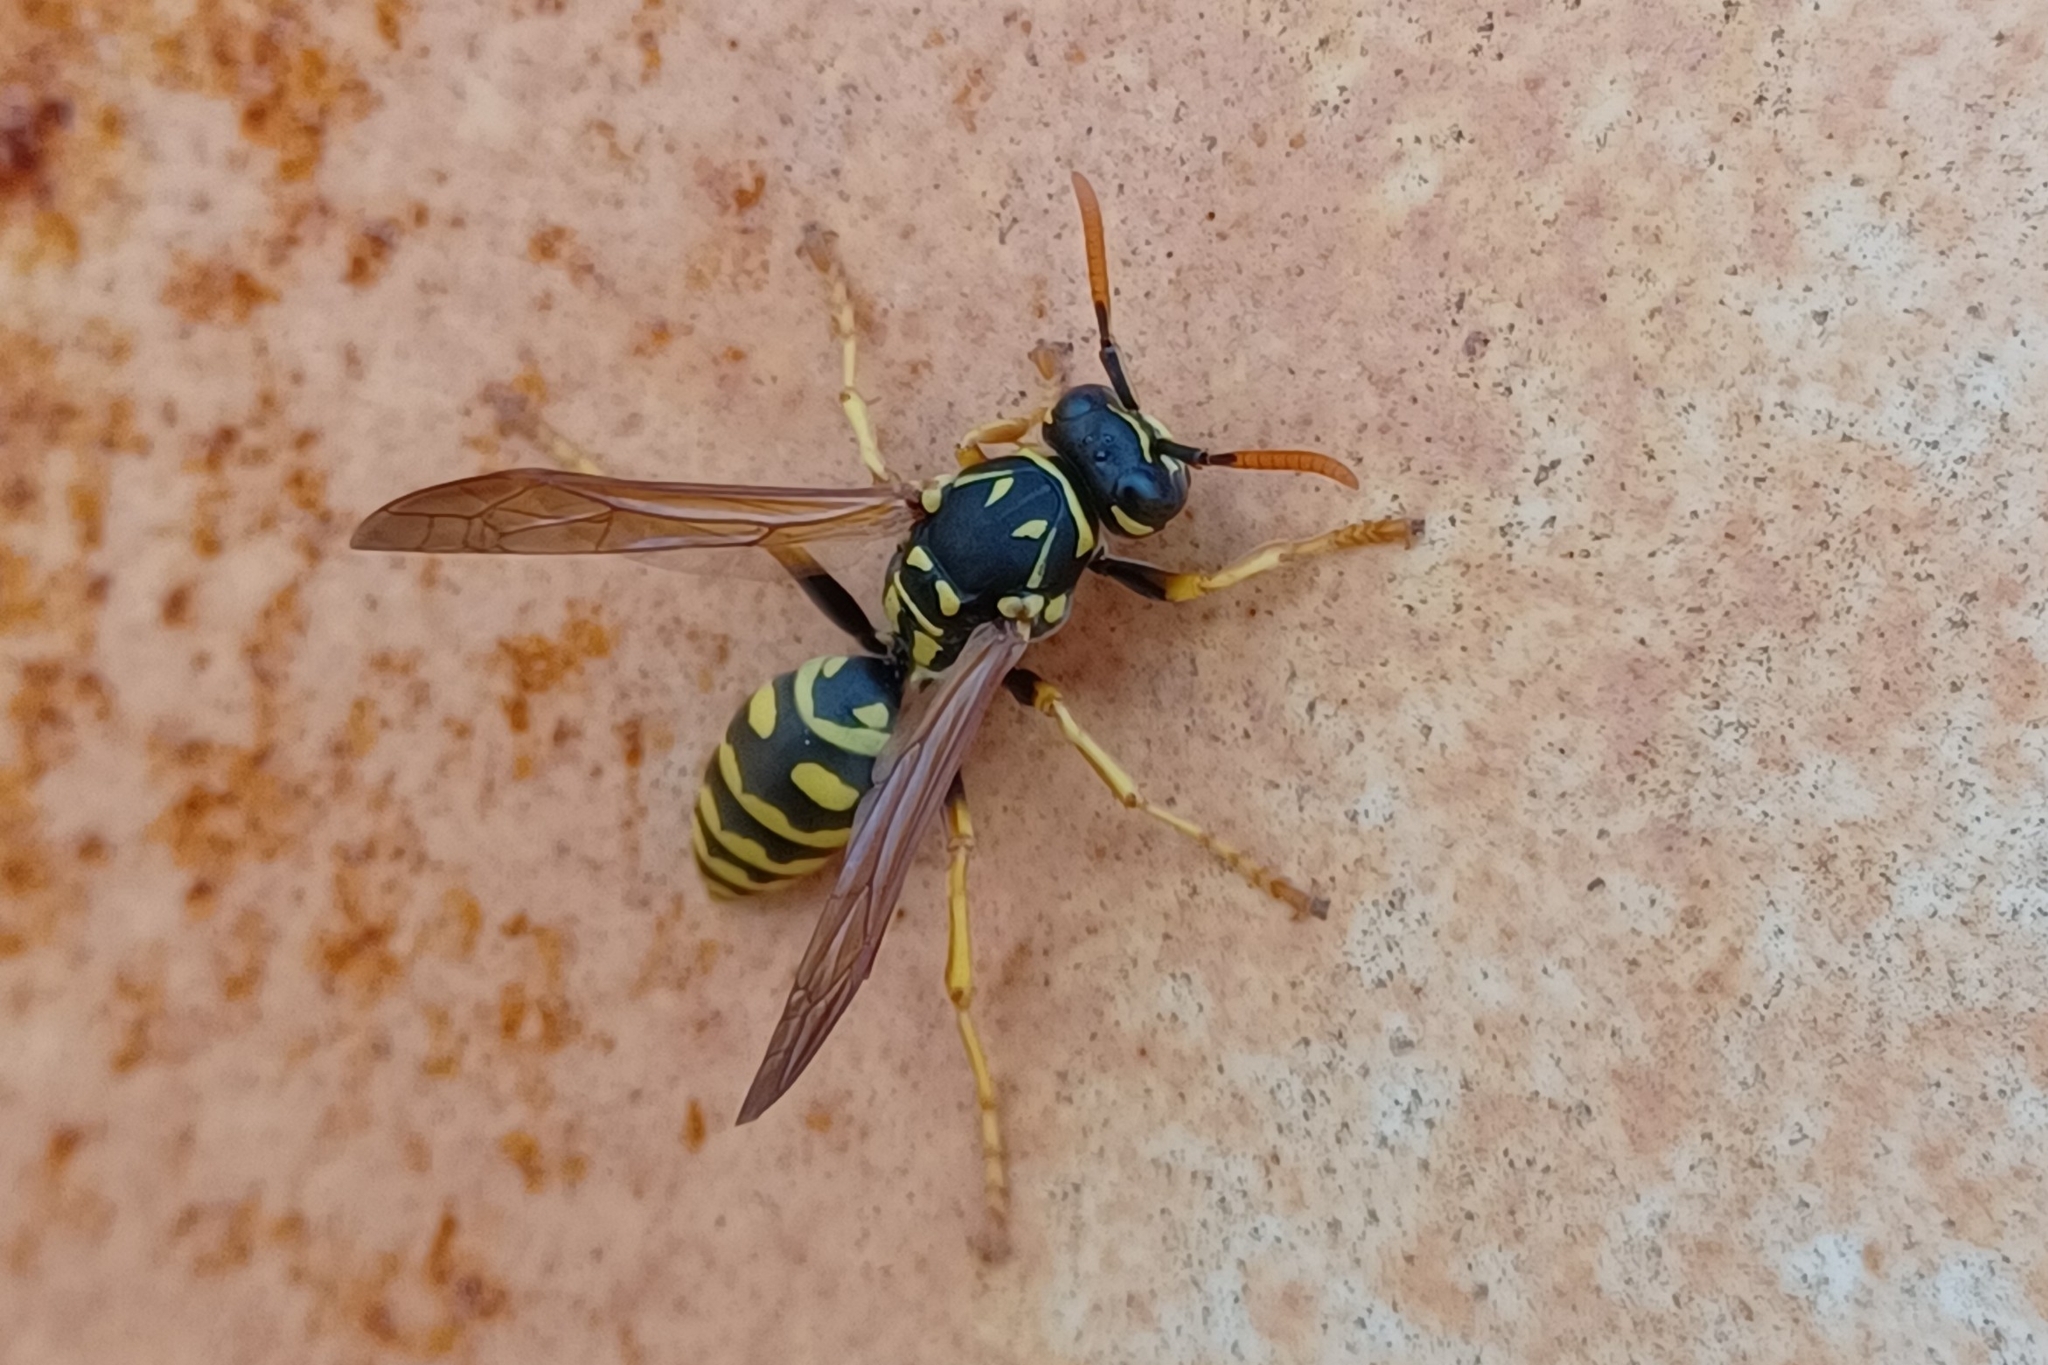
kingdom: Animalia
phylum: Arthropoda
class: Insecta
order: Hymenoptera
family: Eumenidae
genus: Polistes
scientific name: Polistes dominula
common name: Paper wasp
